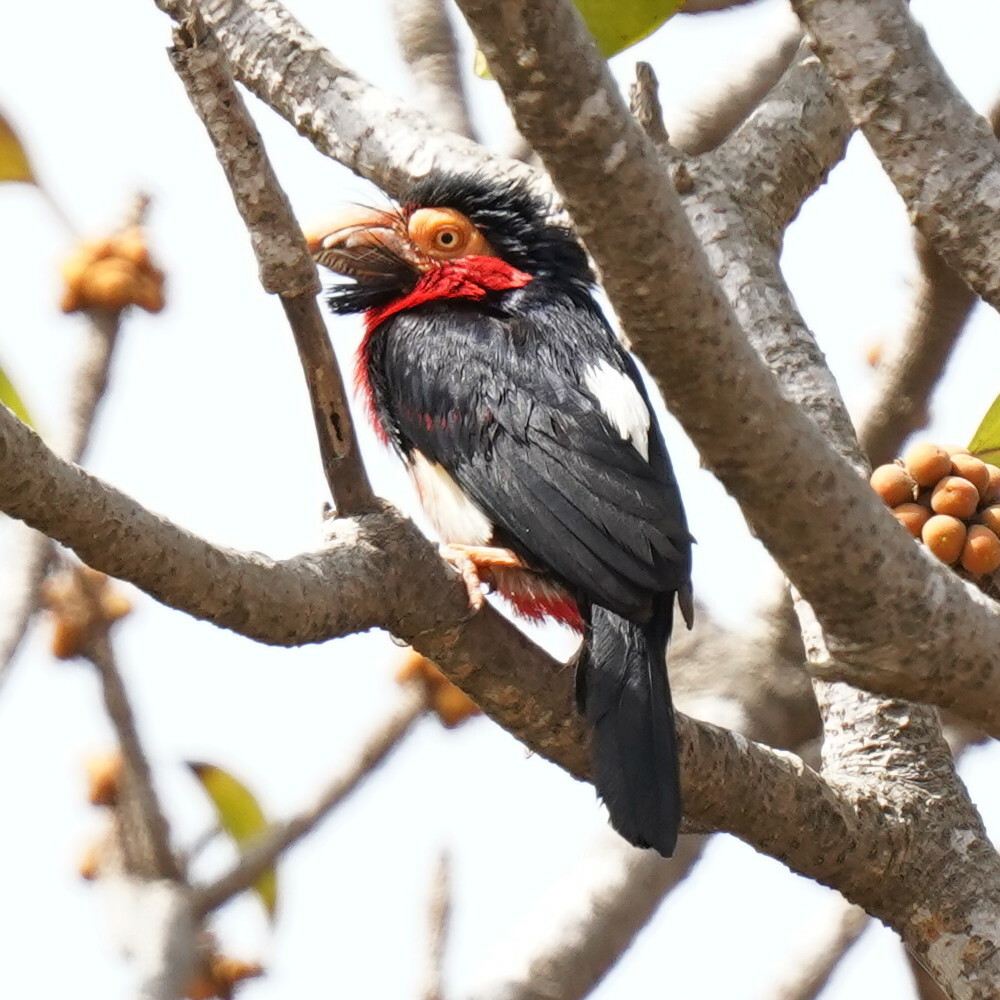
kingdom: Animalia
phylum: Chordata
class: Aves
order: Piciformes
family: Lybiidae
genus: Lybius
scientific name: Lybius dubius
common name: Bearded barbet
